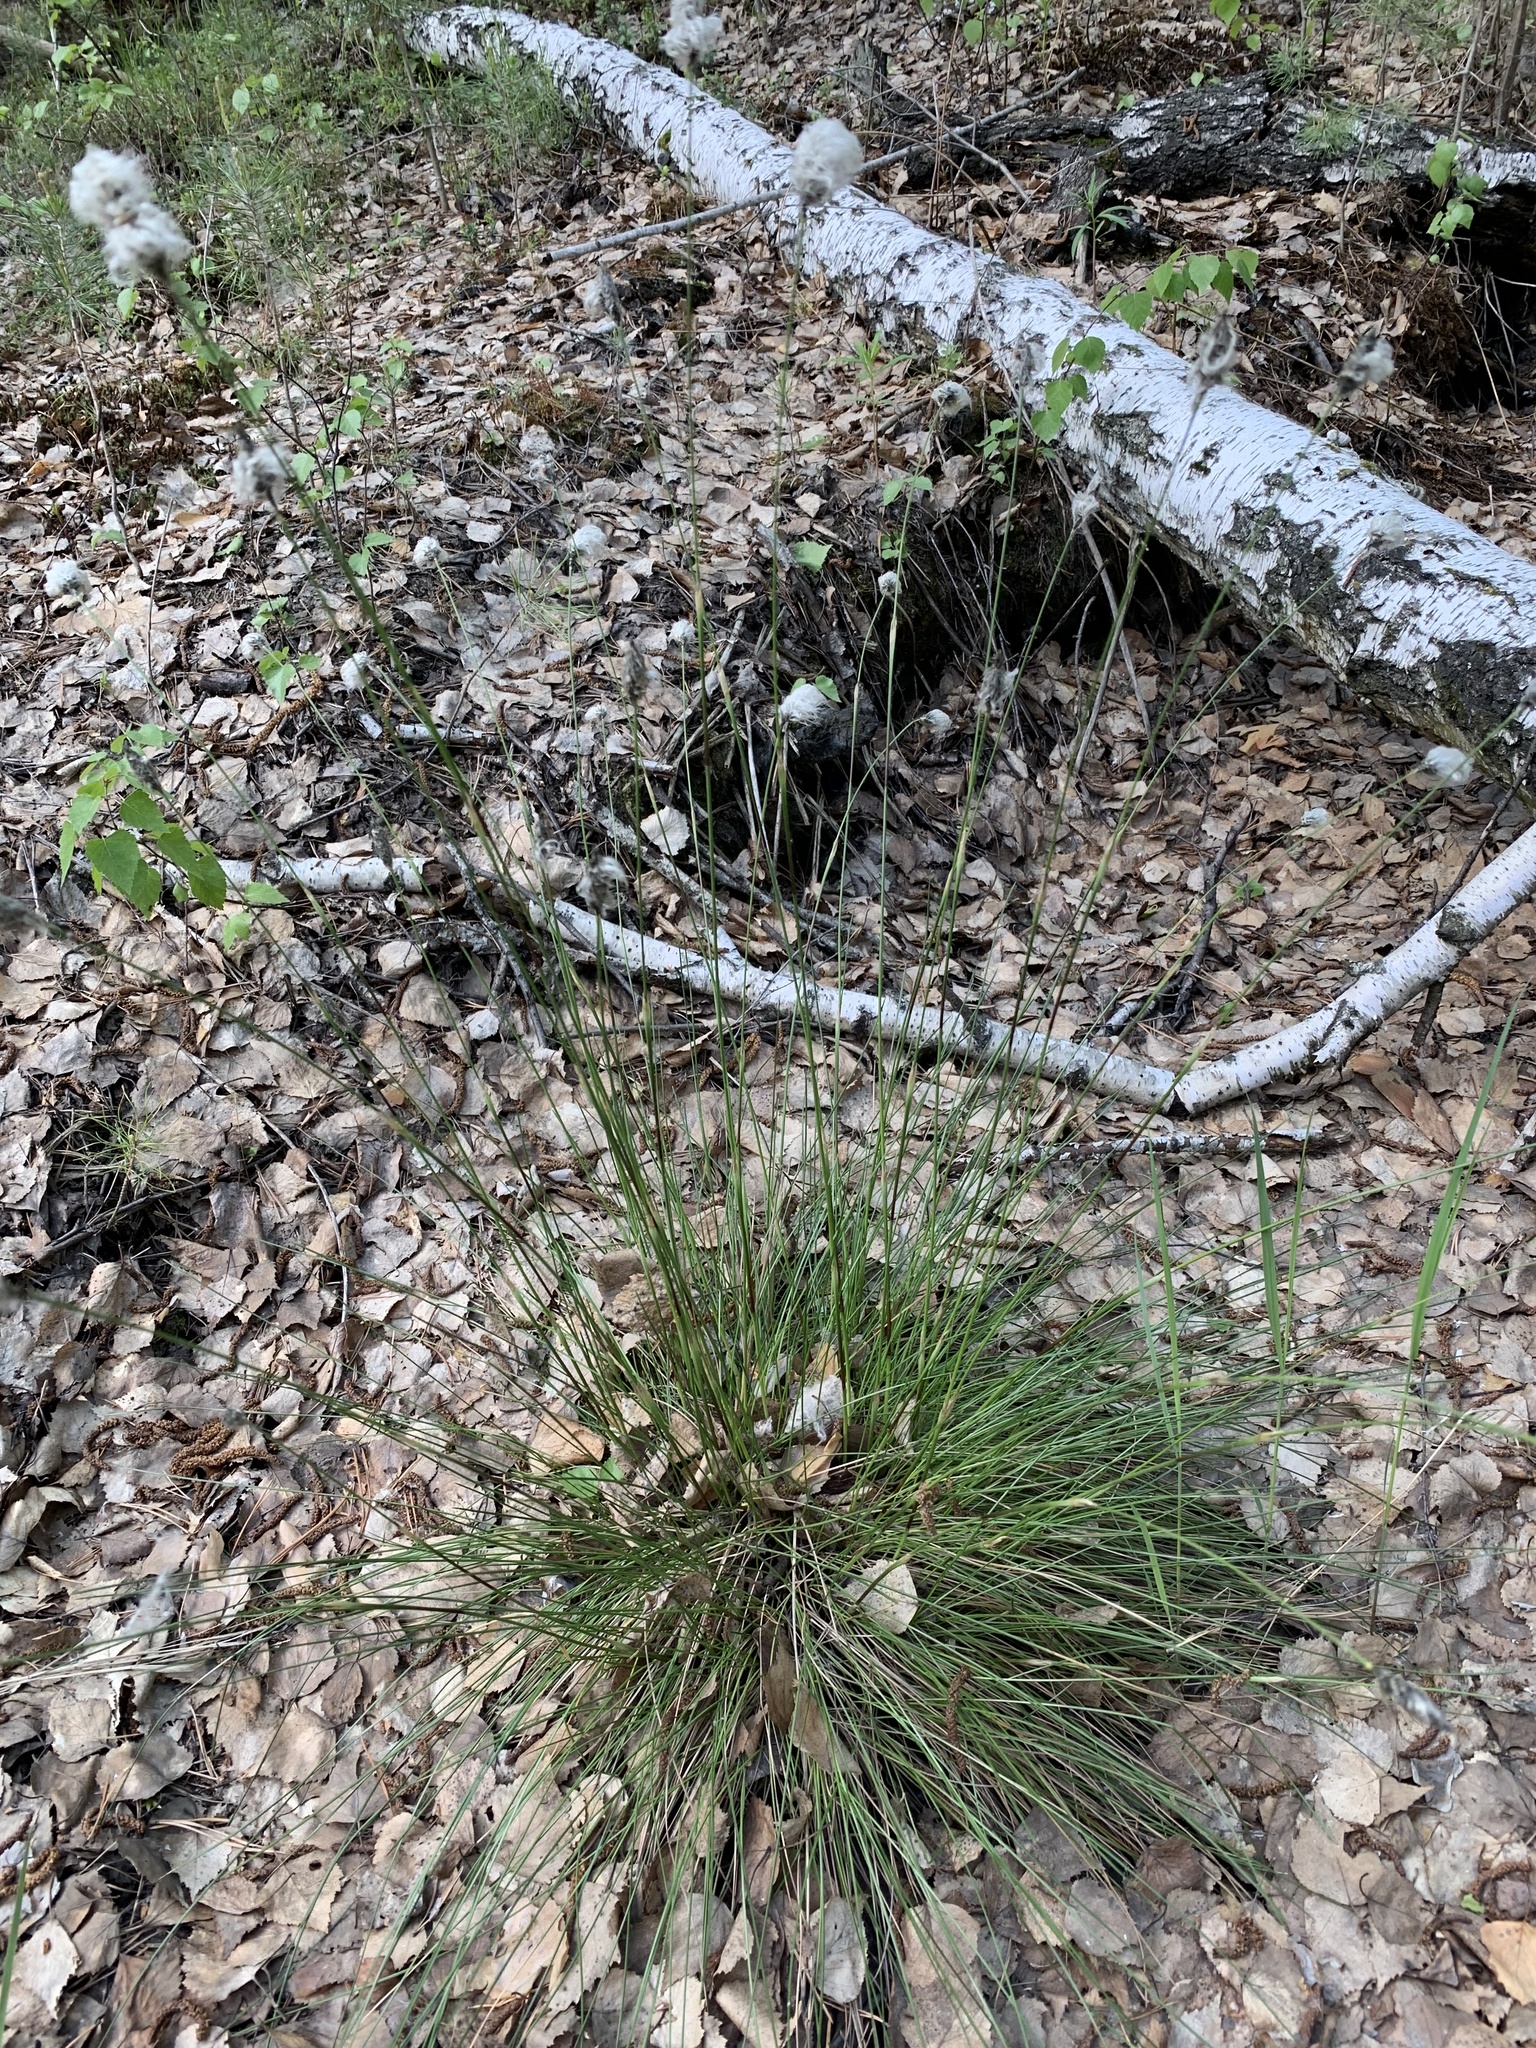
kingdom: Plantae
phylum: Tracheophyta
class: Liliopsida
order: Poales
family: Cyperaceae
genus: Eriophorum
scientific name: Eriophorum vaginatum
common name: Hare's-tail cottongrass
